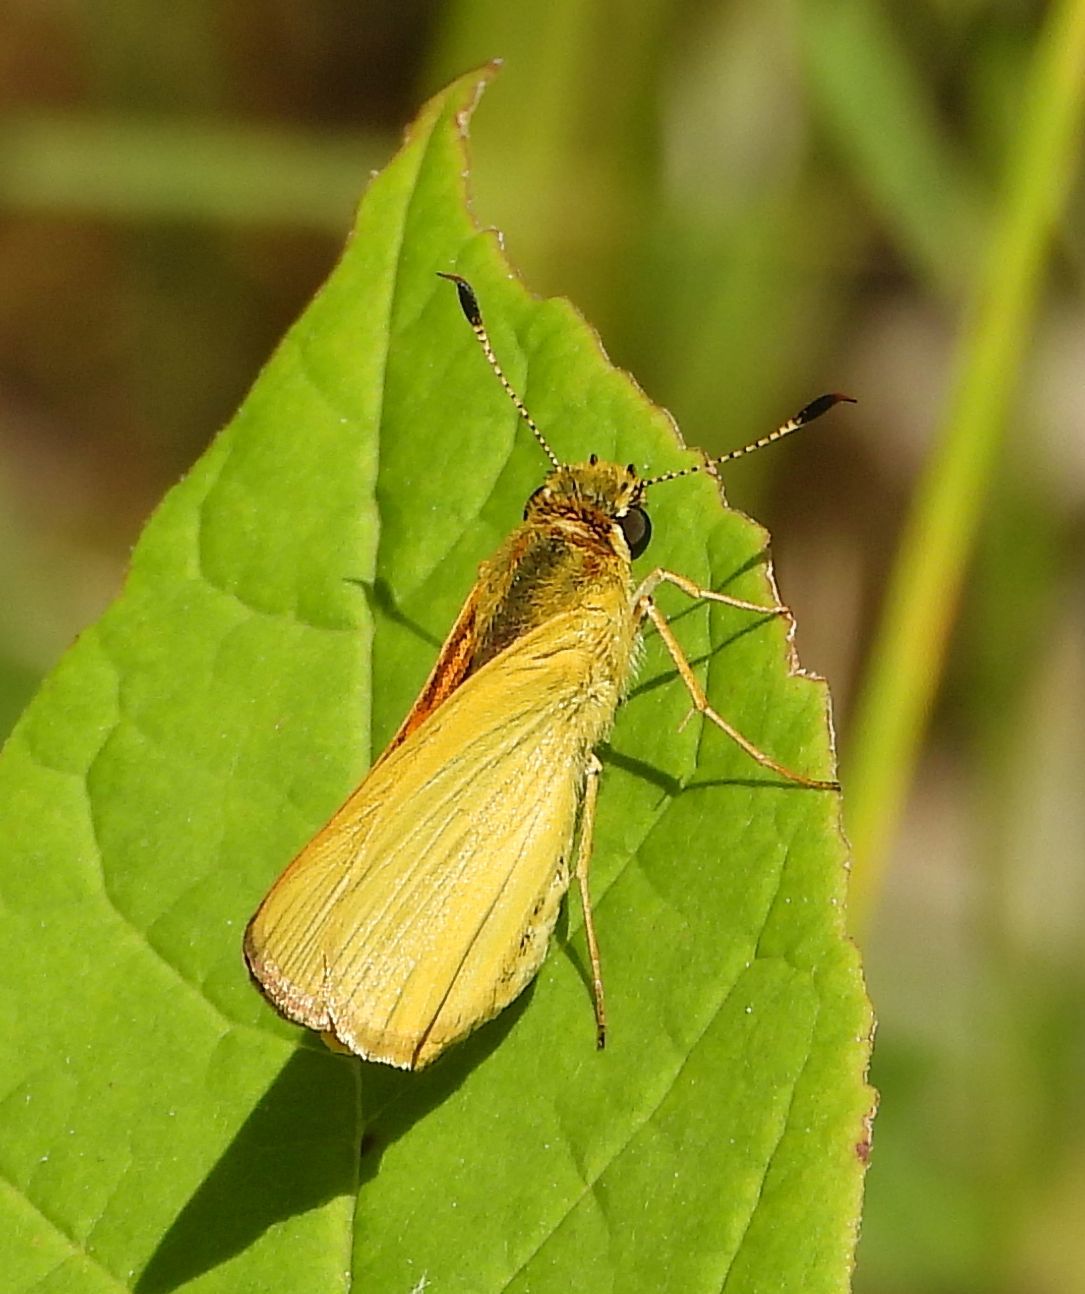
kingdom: Animalia
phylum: Arthropoda
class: Insecta
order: Lepidoptera
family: Hesperiidae
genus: Atrytone
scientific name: Atrytone delaware
